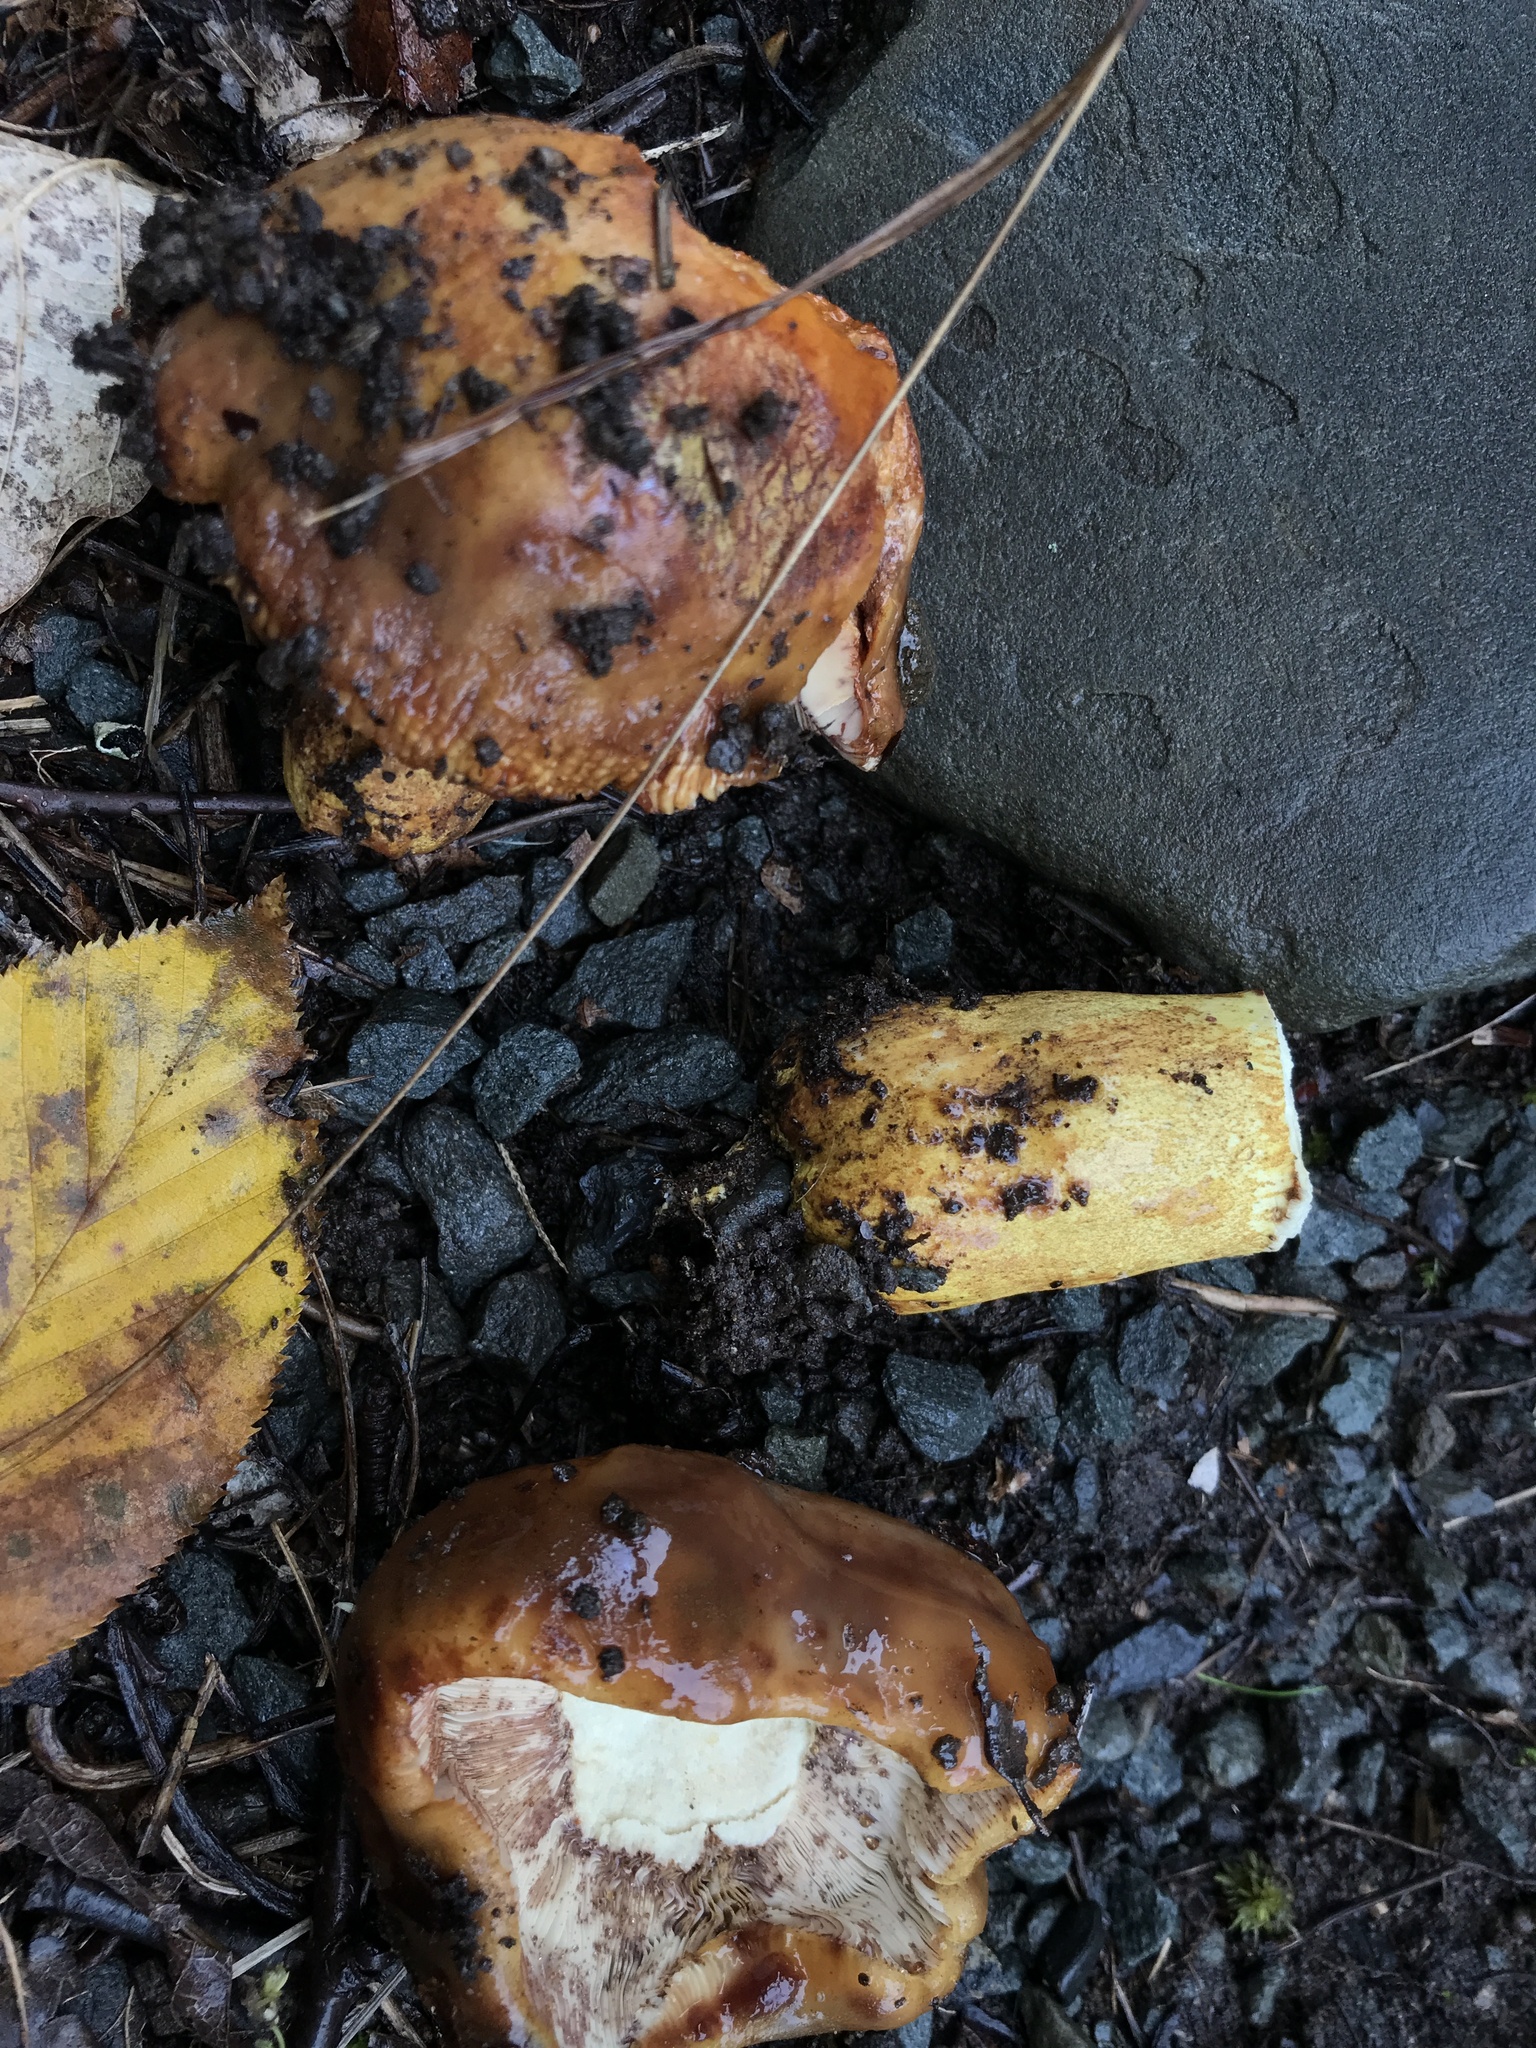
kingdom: Fungi
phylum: Basidiomycota
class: Agaricomycetes
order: Russulales
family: Russulaceae
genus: Russula
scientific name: Russula mutabilis
